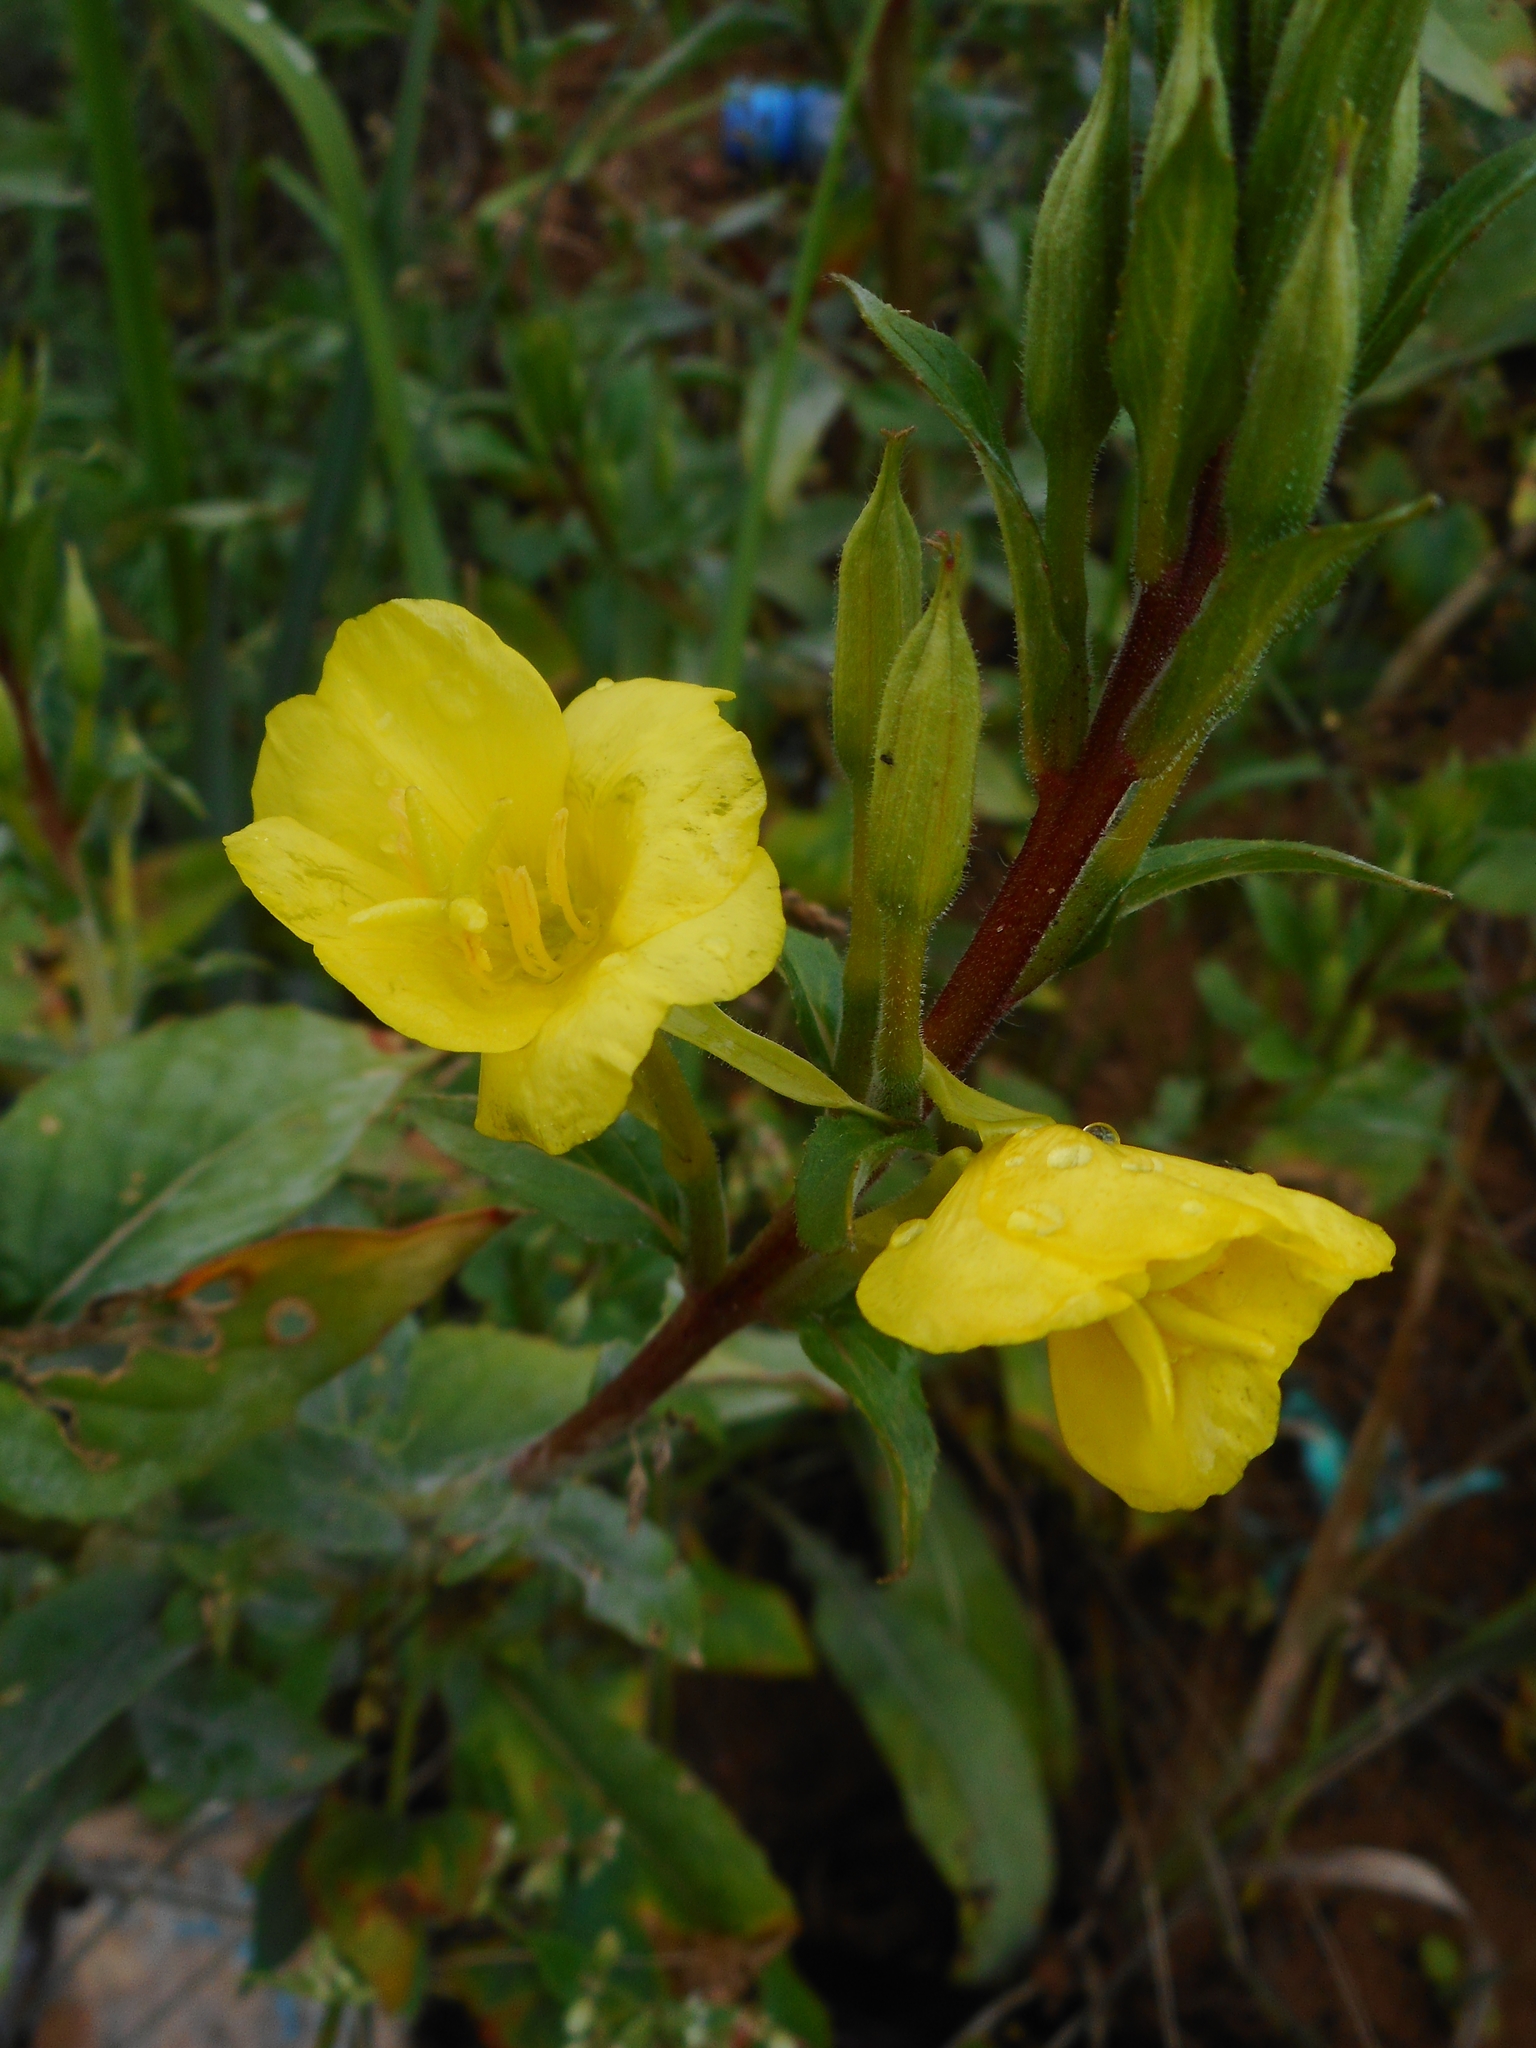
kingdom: Plantae
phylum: Tracheophyta
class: Magnoliopsida
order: Myrtales
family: Onagraceae
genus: Oenothera
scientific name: Oenothera rubricaulis
